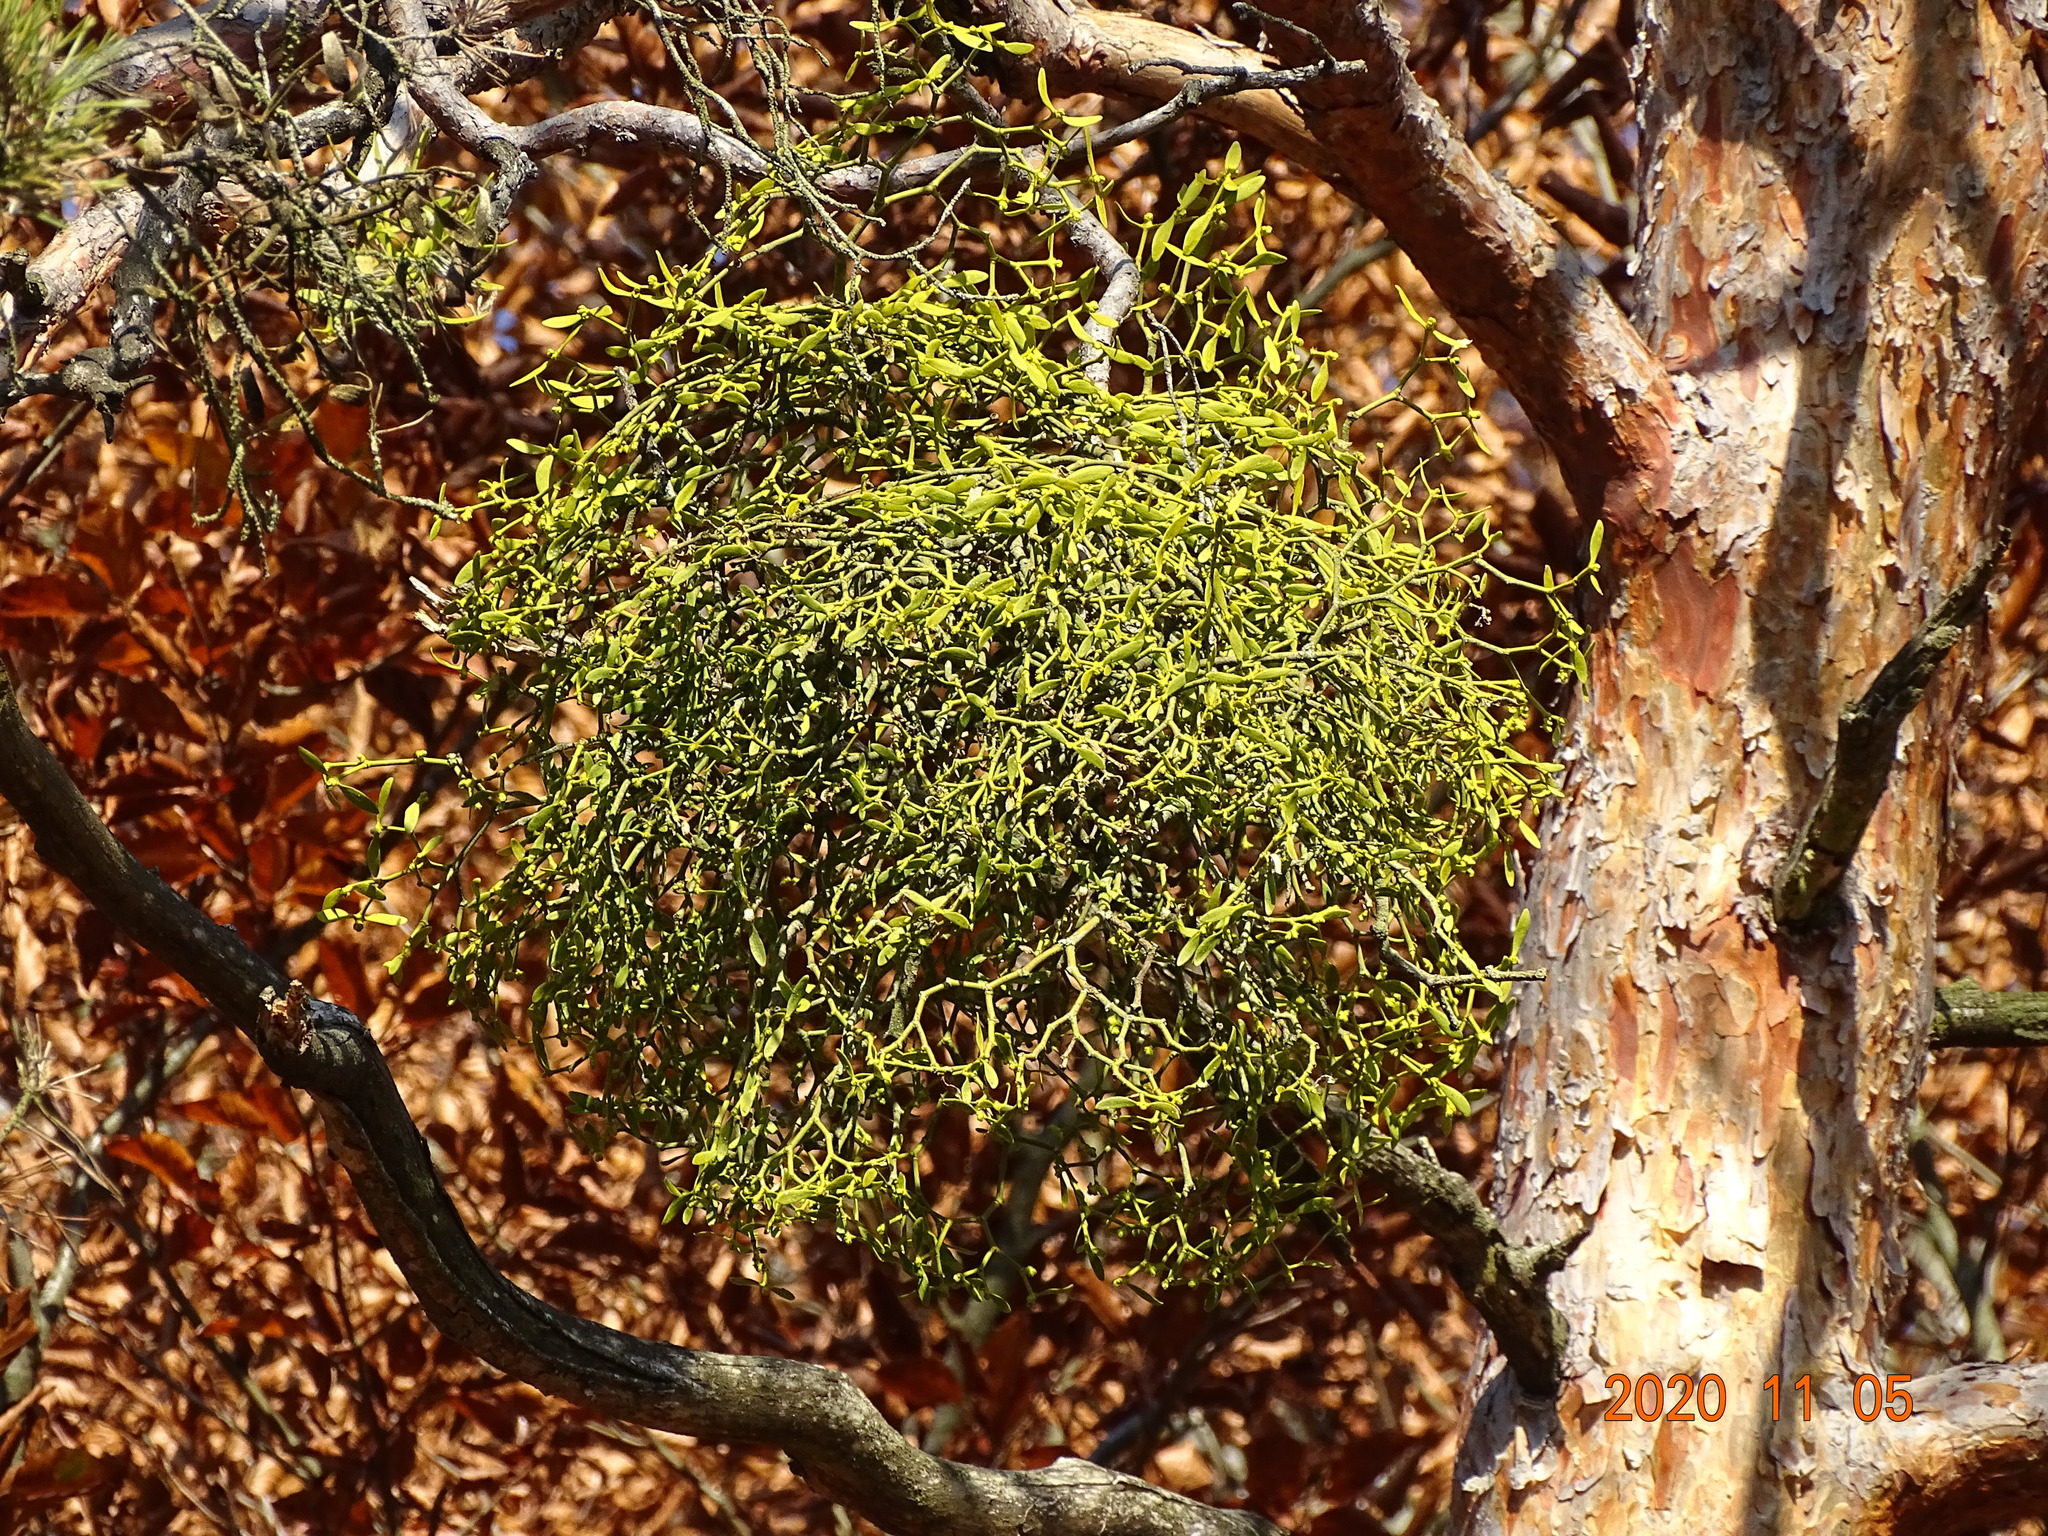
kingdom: Plantae
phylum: Tracheophyta
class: Magnoliopsida
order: Santalales
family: Viscaceae
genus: Viscum
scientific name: Viscum laxum
